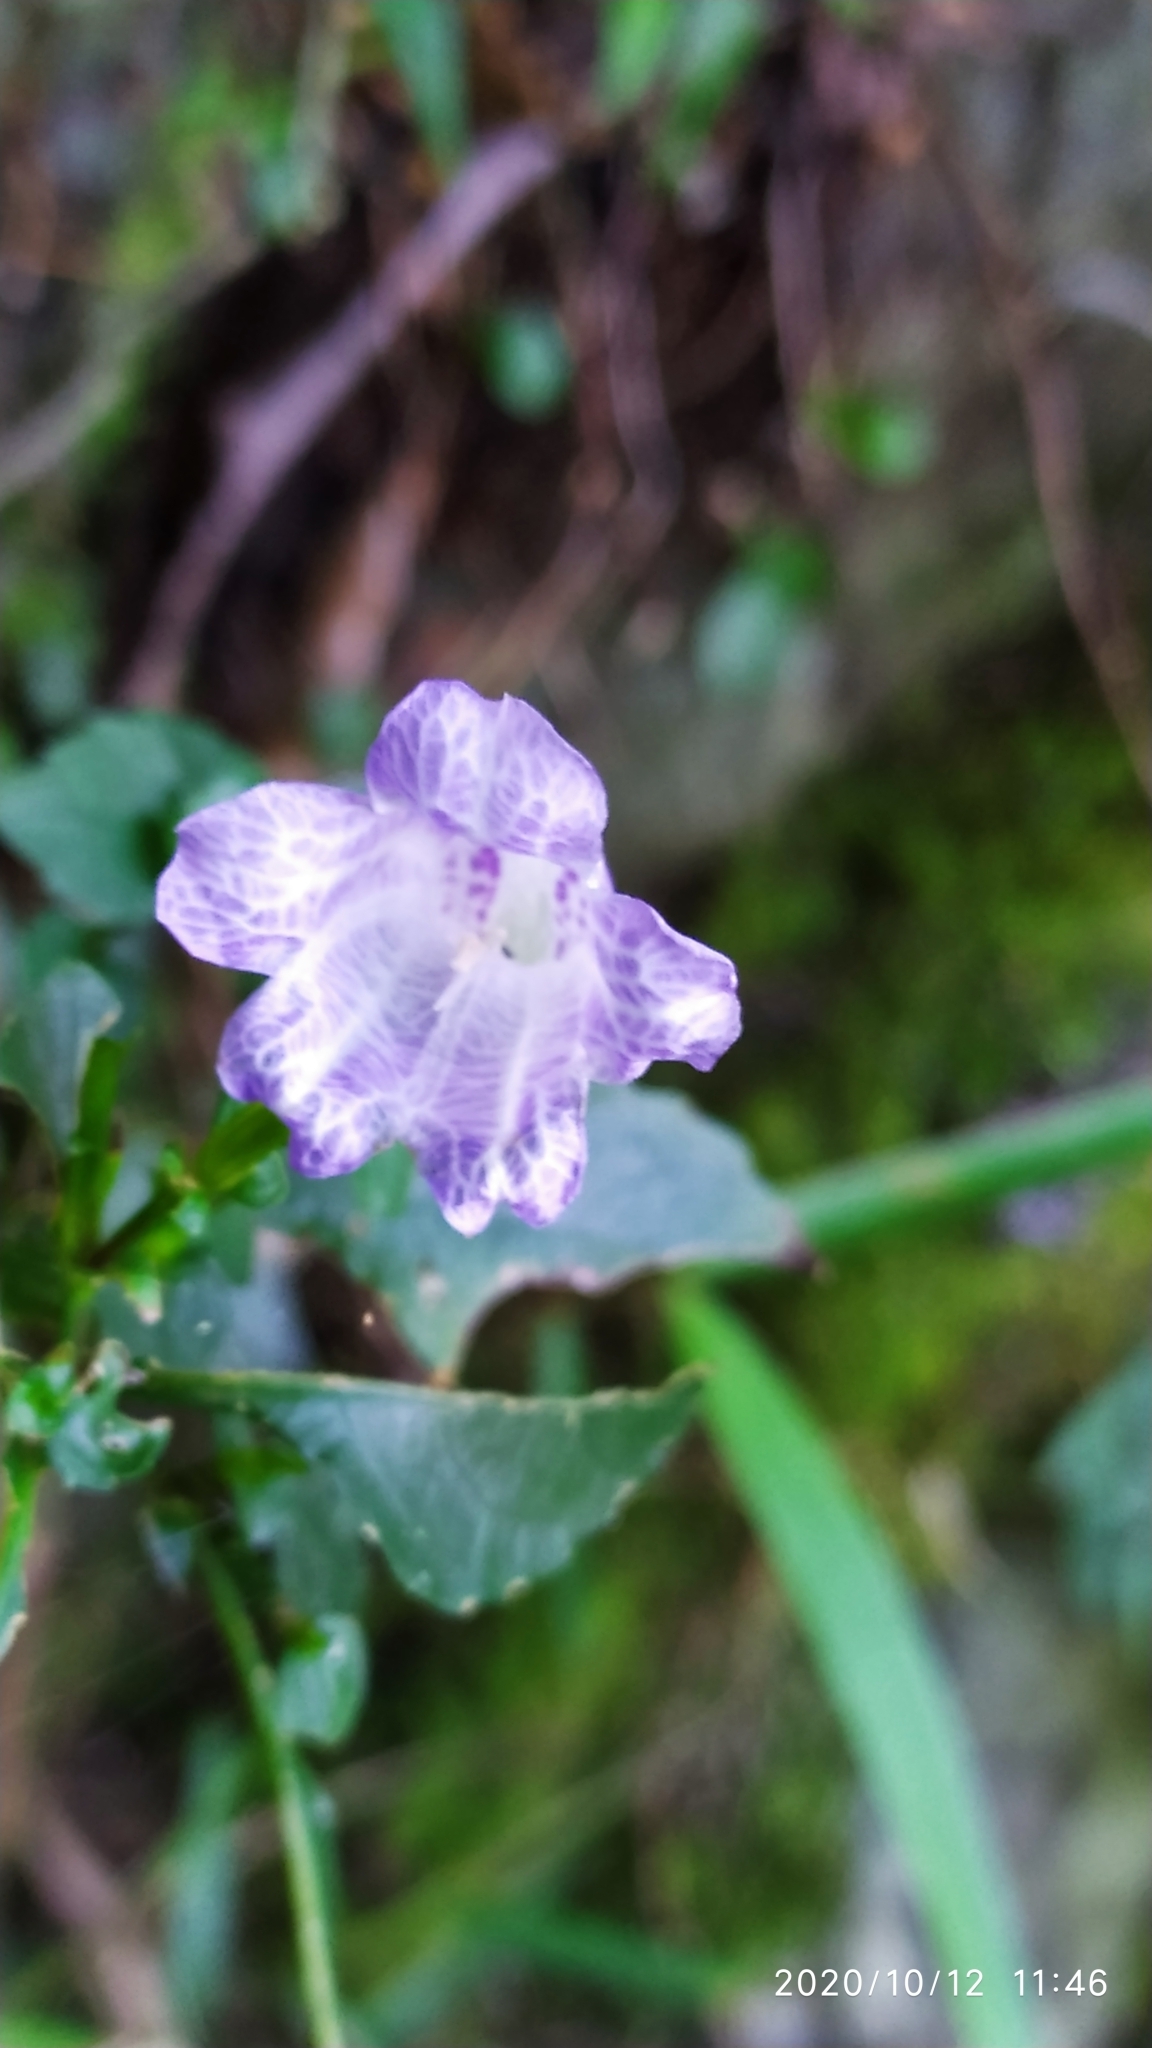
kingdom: Plantae
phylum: Tracheophyta
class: Magnoliopsida
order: Lamiales
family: Acanthaceae
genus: Strobilanthes
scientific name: Strobilanthes flexicaulis
